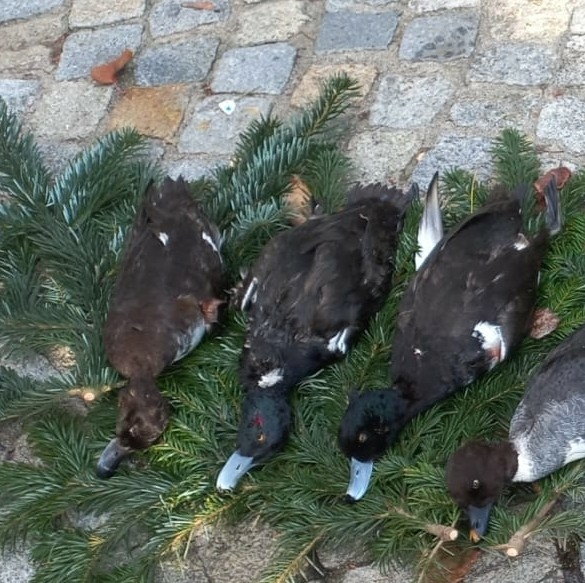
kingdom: Animalia
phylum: Chordata
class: Aves
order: Anseriformes
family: Anatidae
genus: Aythya
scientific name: Aythya fuligula
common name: Tufted duck
